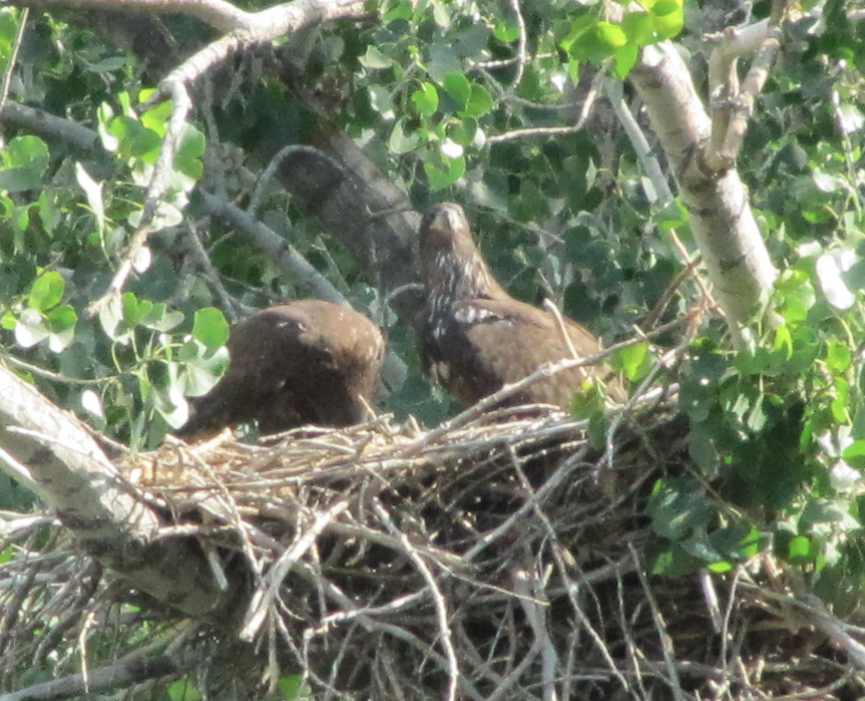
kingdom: Animalia
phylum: Chordata
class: Aves
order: Accipitriformes
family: Accipitridae
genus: Haliaeetus
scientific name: Haliaeetus leucocephalus
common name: Bald eagle
